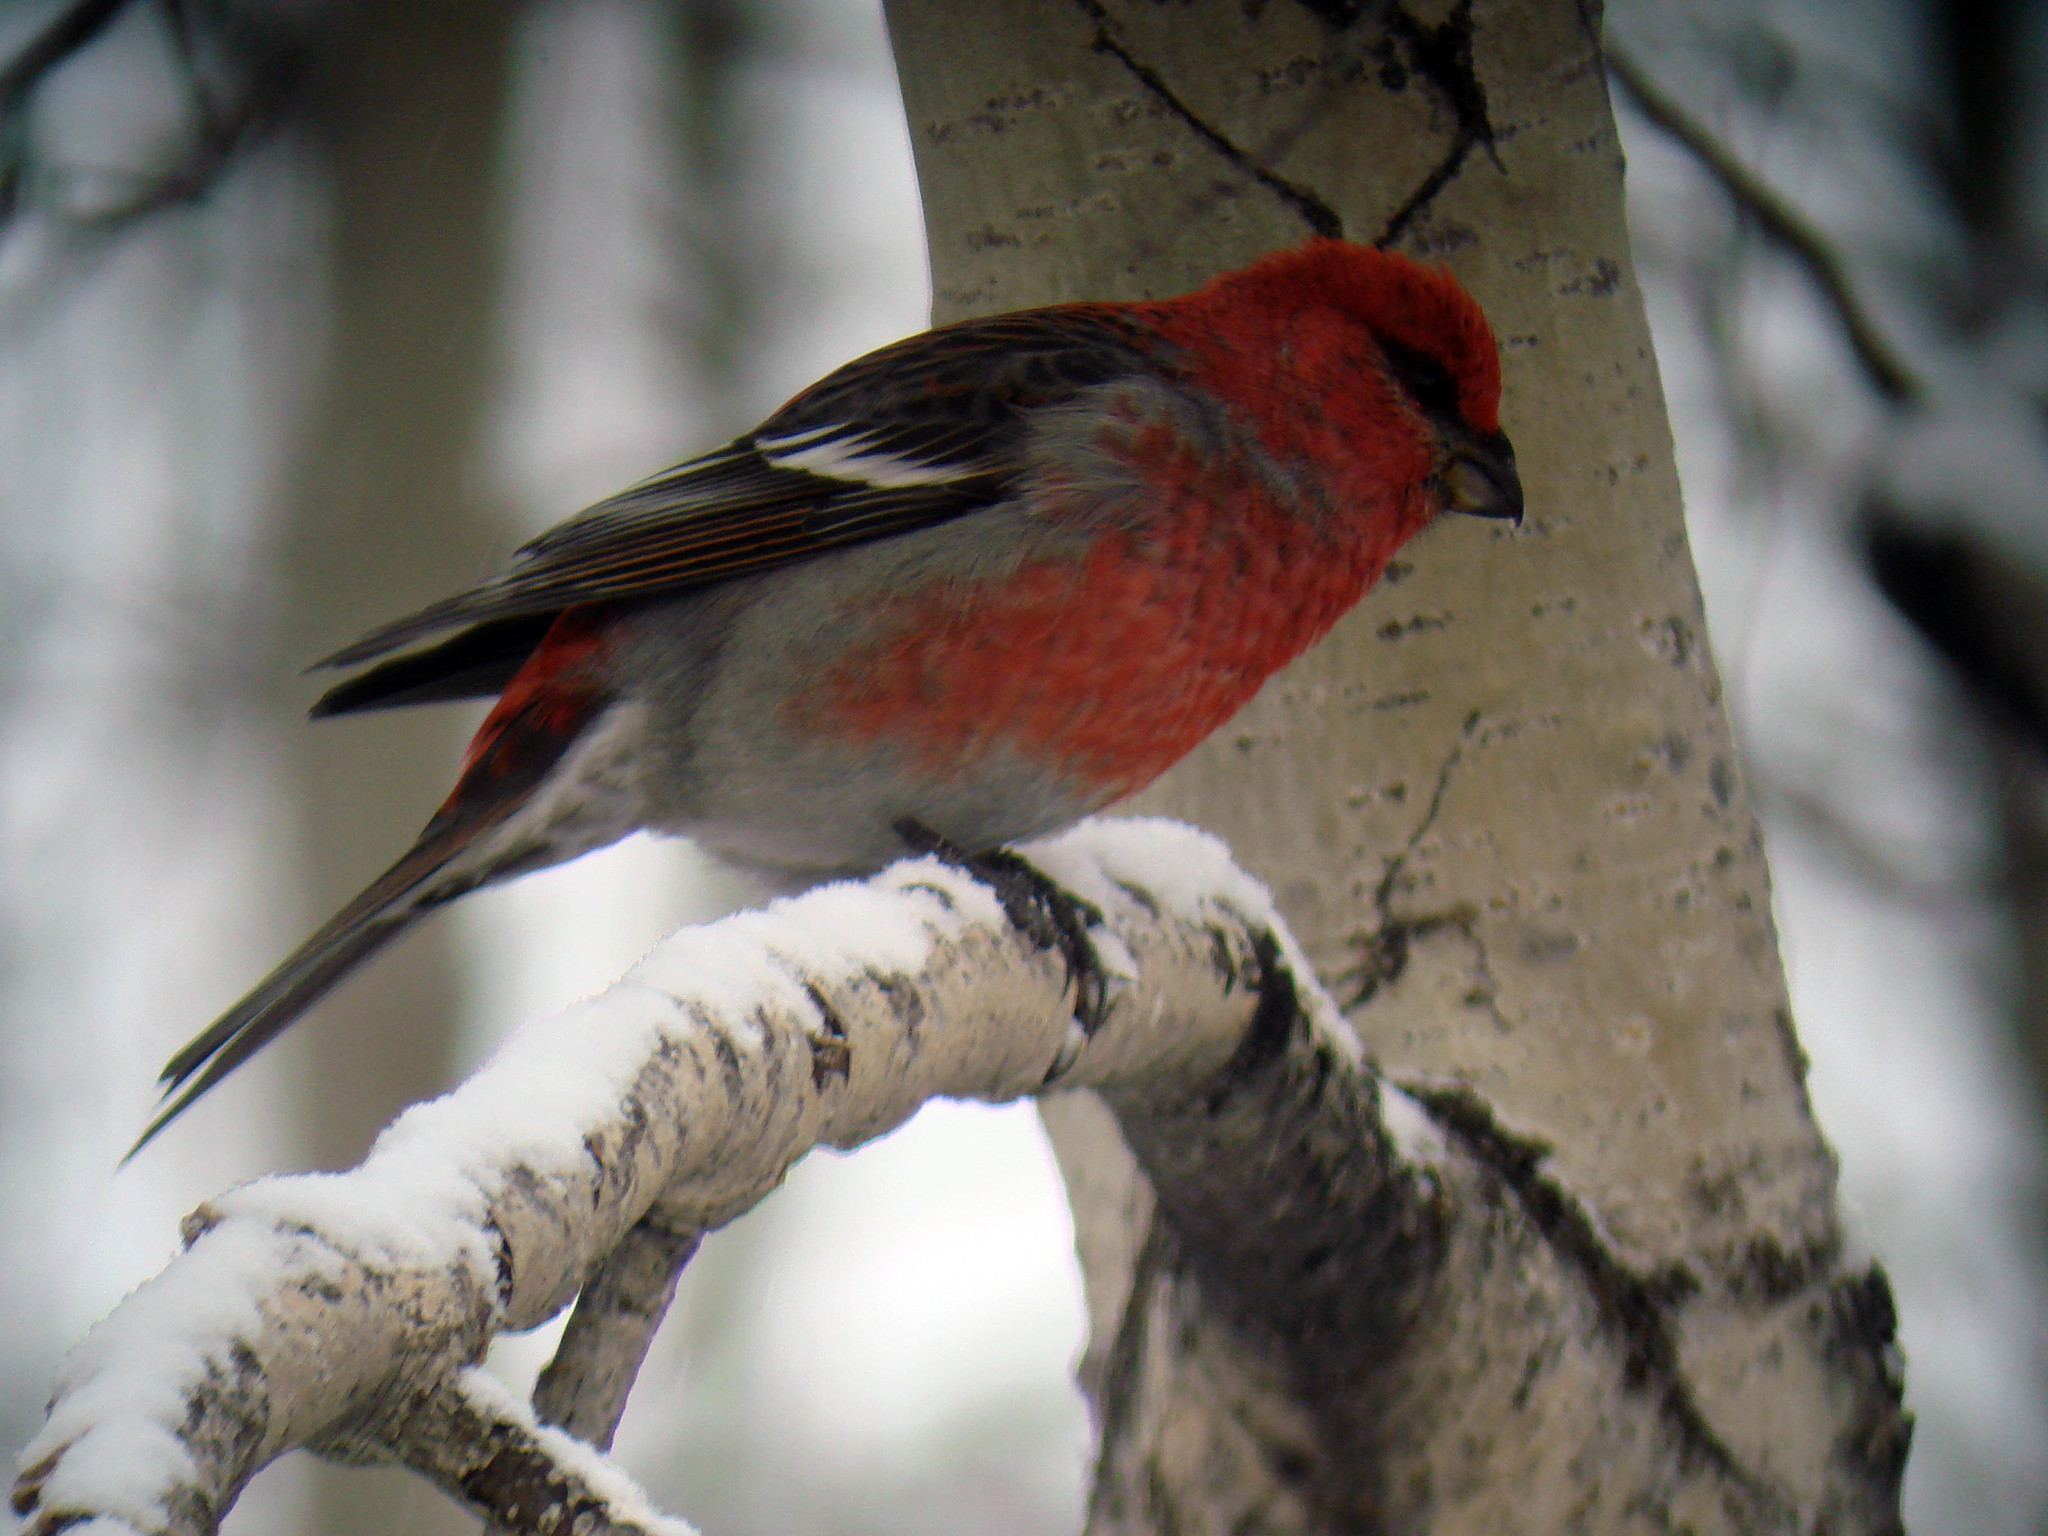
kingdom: Animalia
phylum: Chordata
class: Aves
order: Passeriformes
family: Fringillidae
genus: Pinicola
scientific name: Pinicola enucleator
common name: Pine grosbeak
